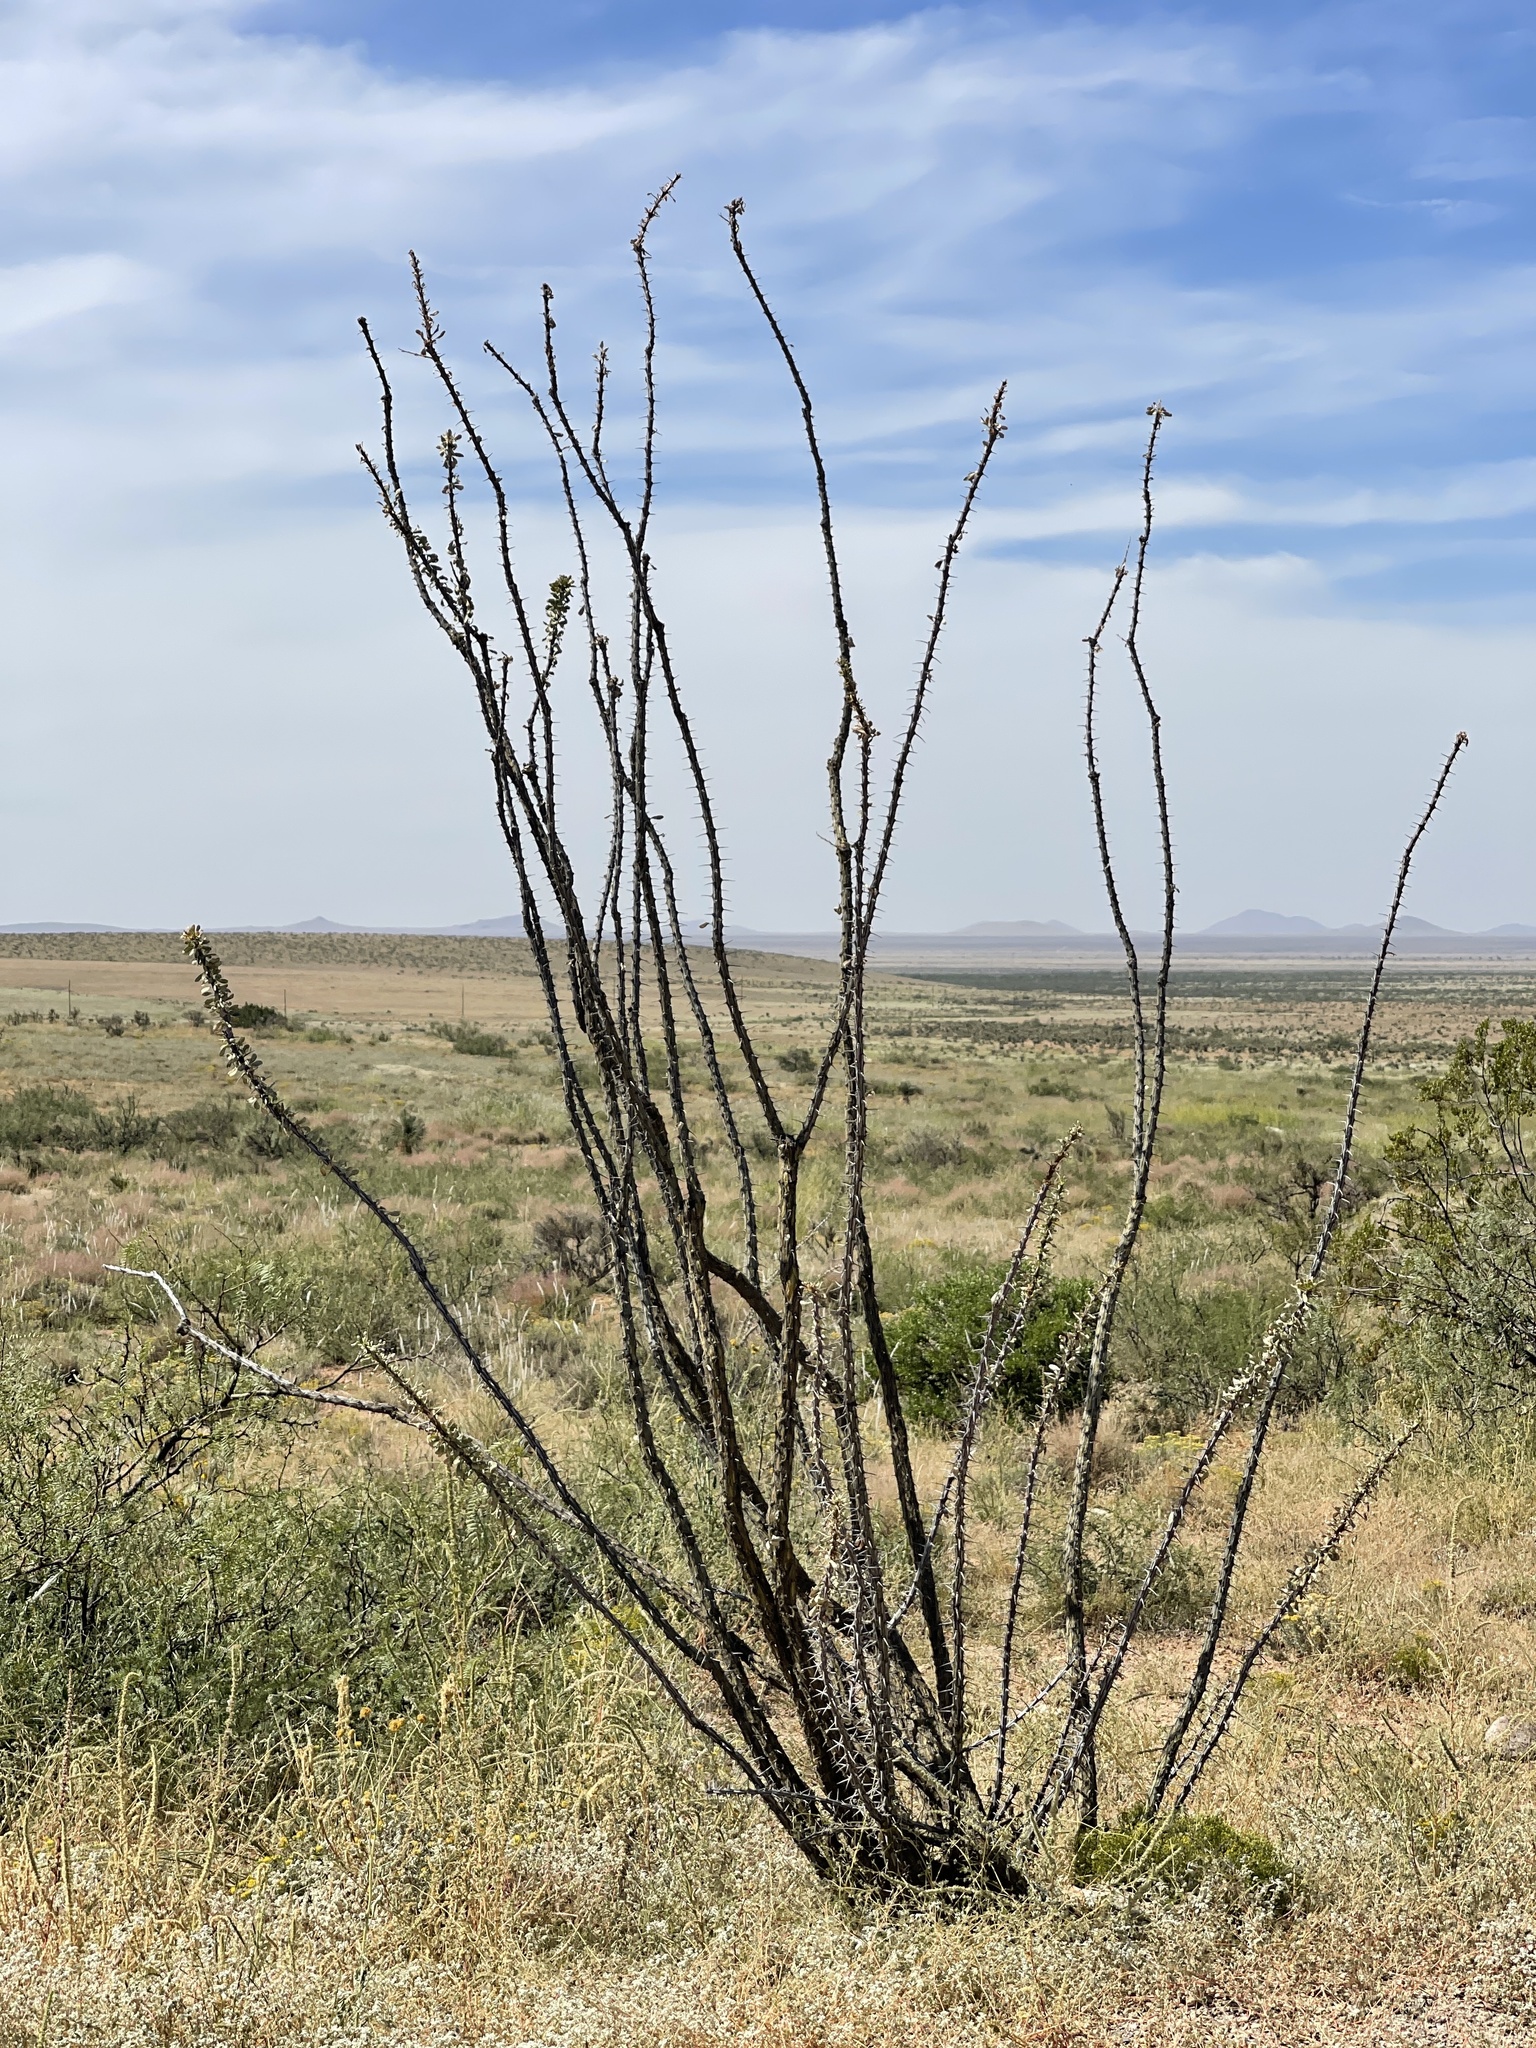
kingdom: Plantae
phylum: Tracheophyta
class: Magnoliopsida
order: Ericales
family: Fouquieriaceae
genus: Fouquieria
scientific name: Fouquieria splendens
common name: Vine-cactus
